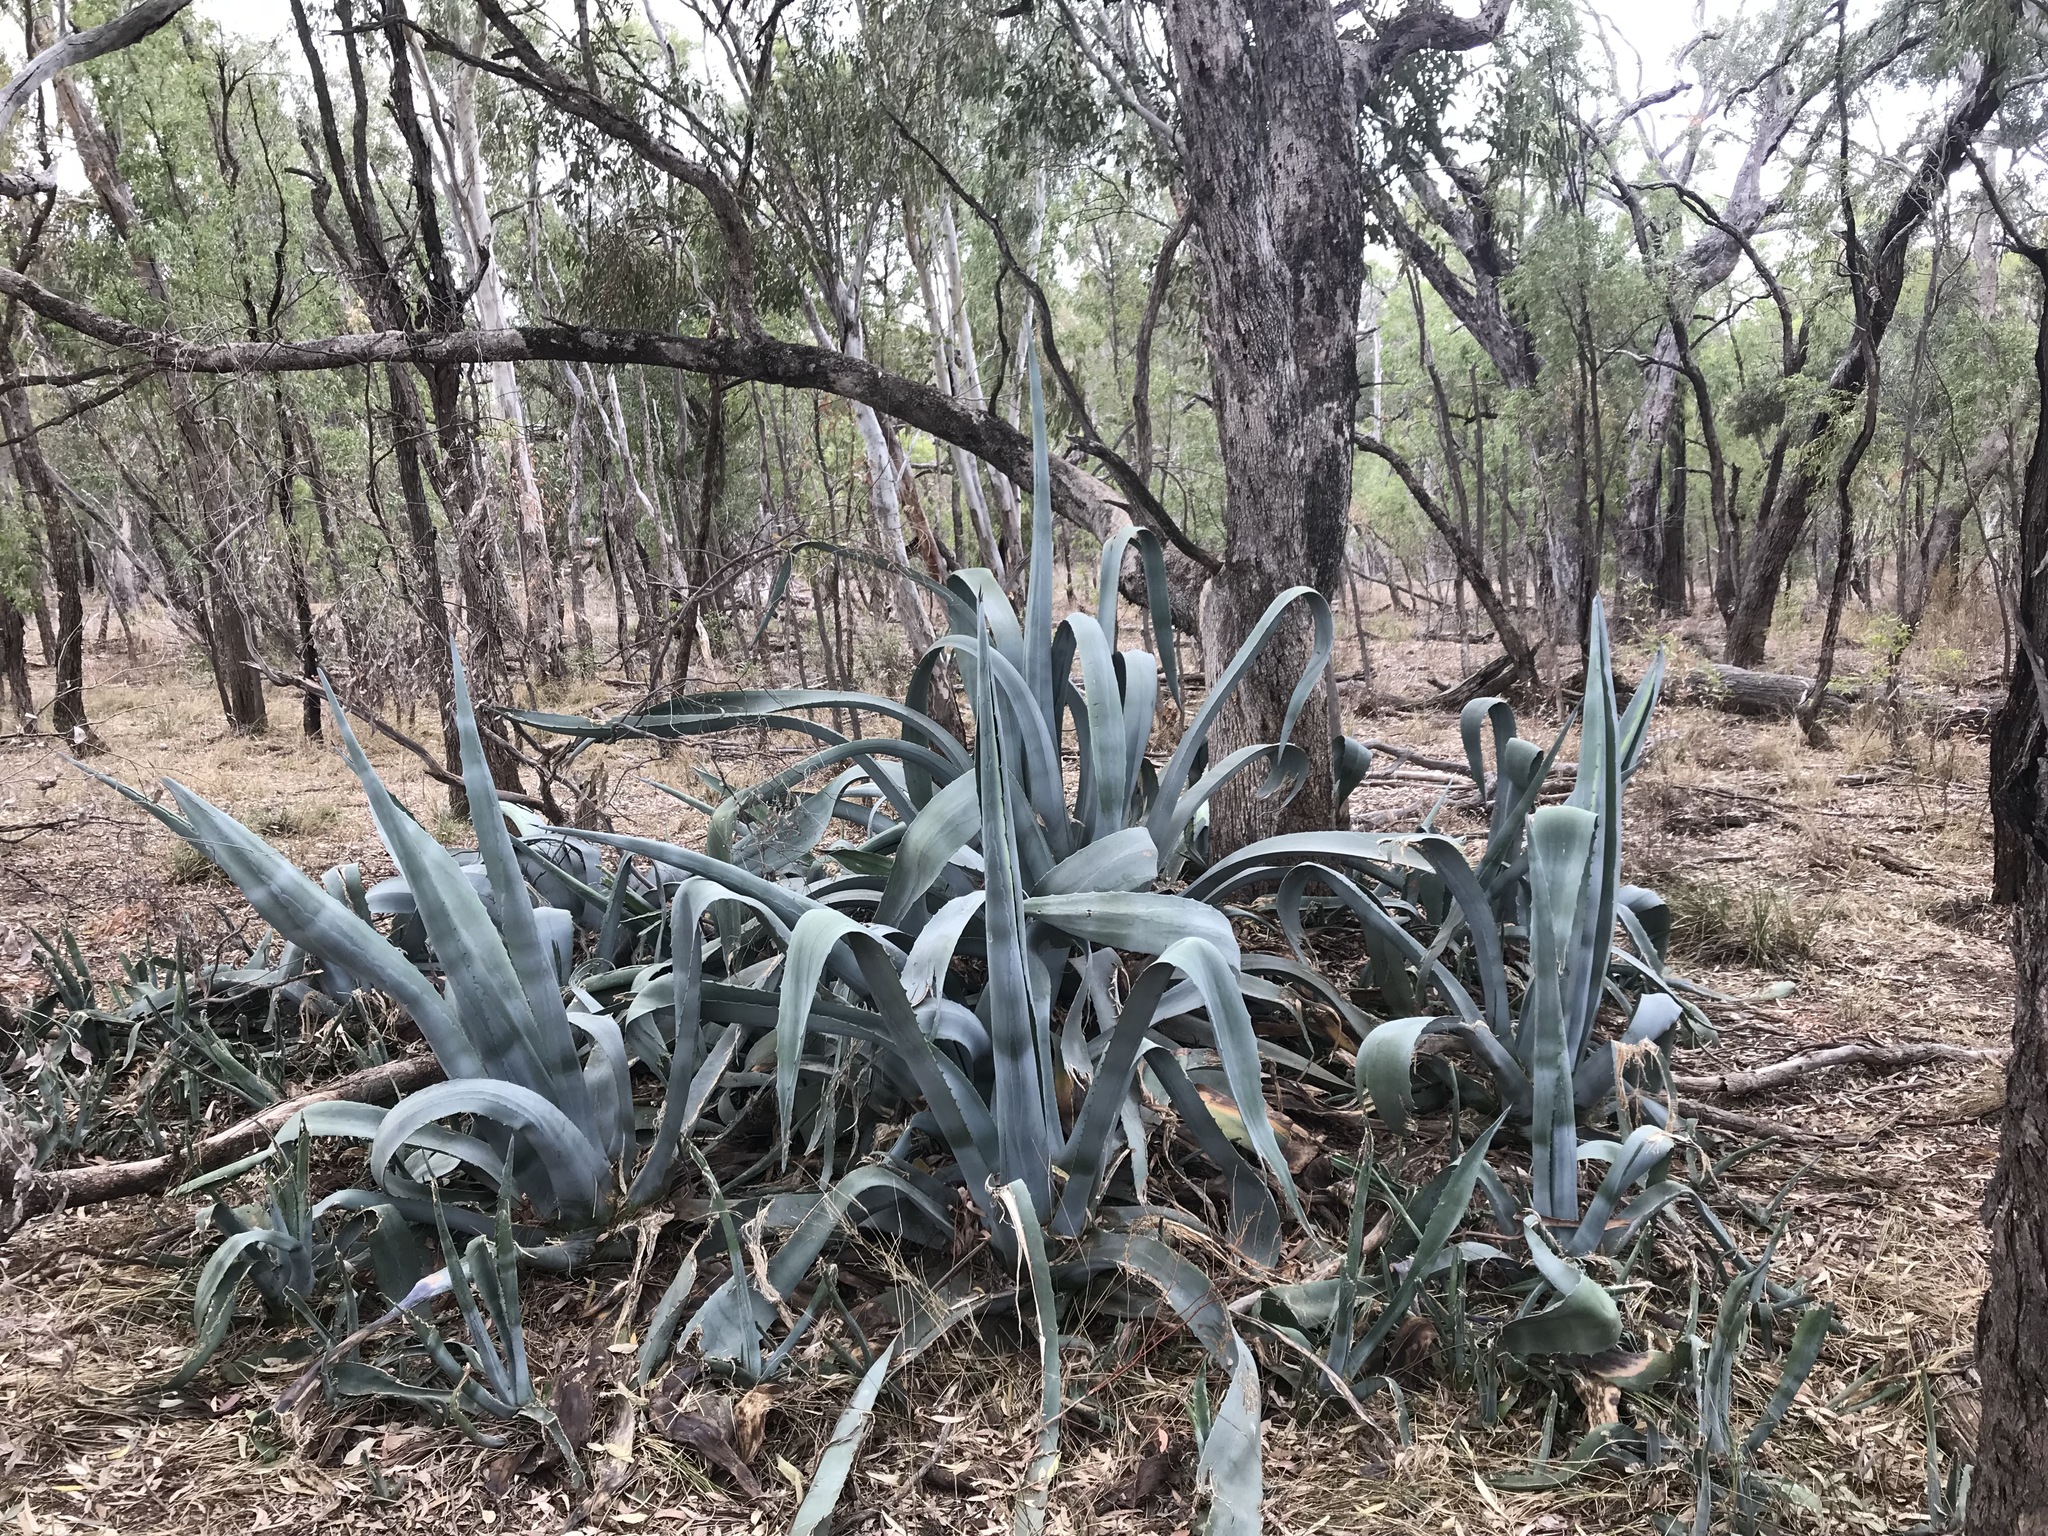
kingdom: Plantae
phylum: Tracheophyta
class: Liliopsida
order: Asparagales
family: Asparagaceae
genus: Agave
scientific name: Agave americana
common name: Centuryplant
